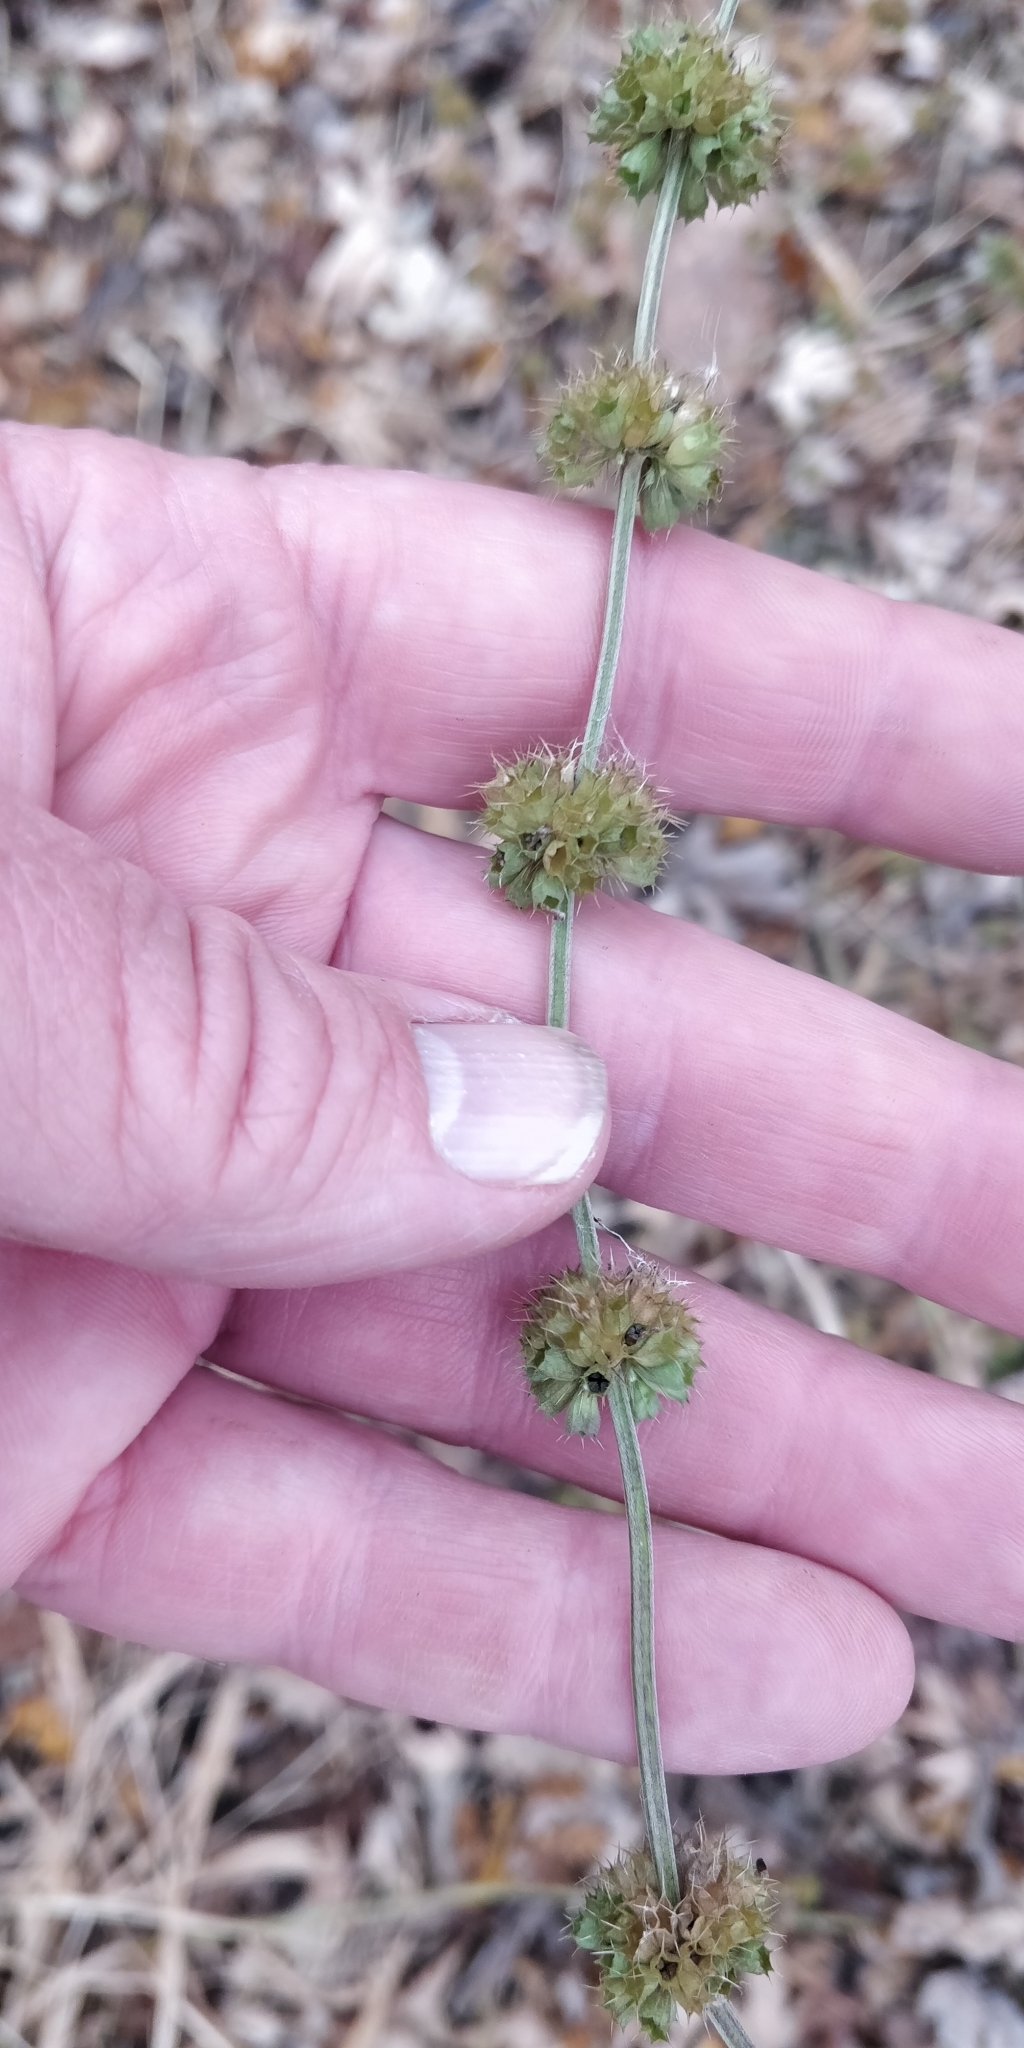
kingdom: Plantae
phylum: Tracheophyta
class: Magnoliopsida
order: Lamiales
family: Lamiaceae
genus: Chaiturus
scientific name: Chaiturus marrubiastrum
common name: Lion's tail
